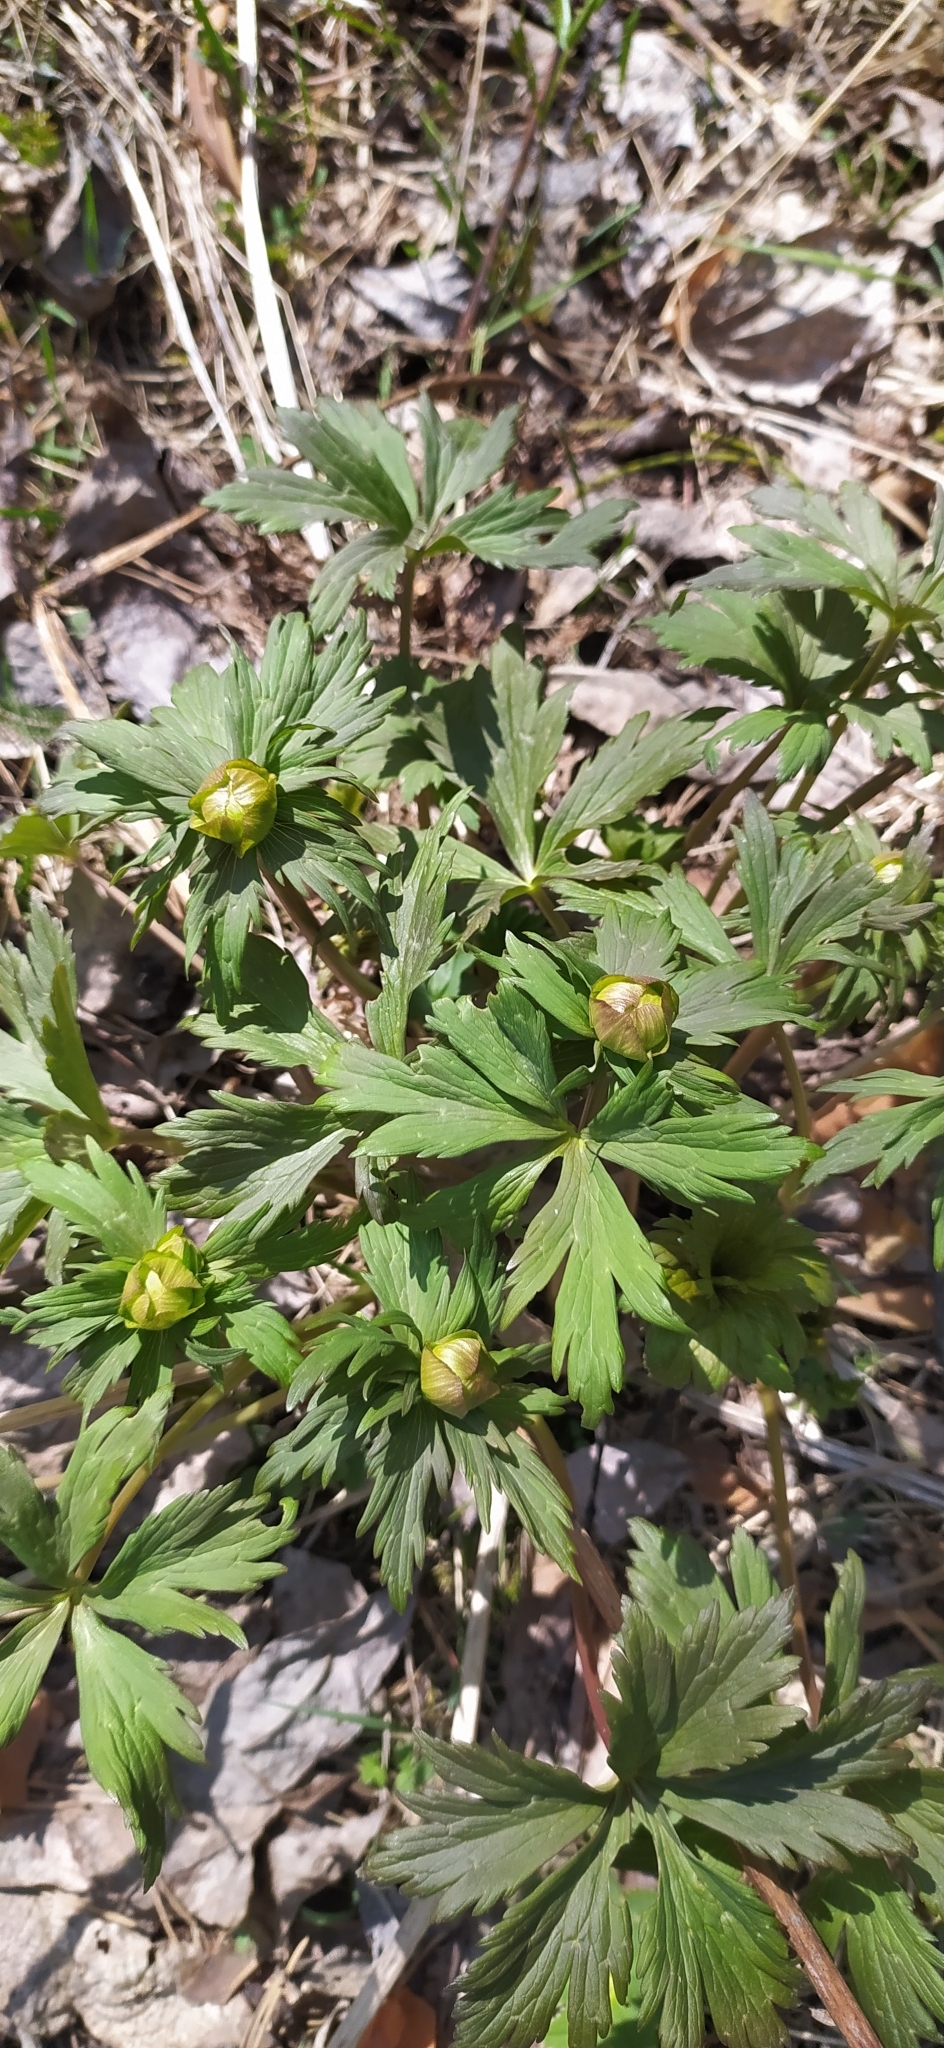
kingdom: Plantae
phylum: Tracheophyta
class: Magnoliopsida
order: Ranunculales
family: Ranunculaceae
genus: Trollius
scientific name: Trollius europaeus
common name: European globeflower
